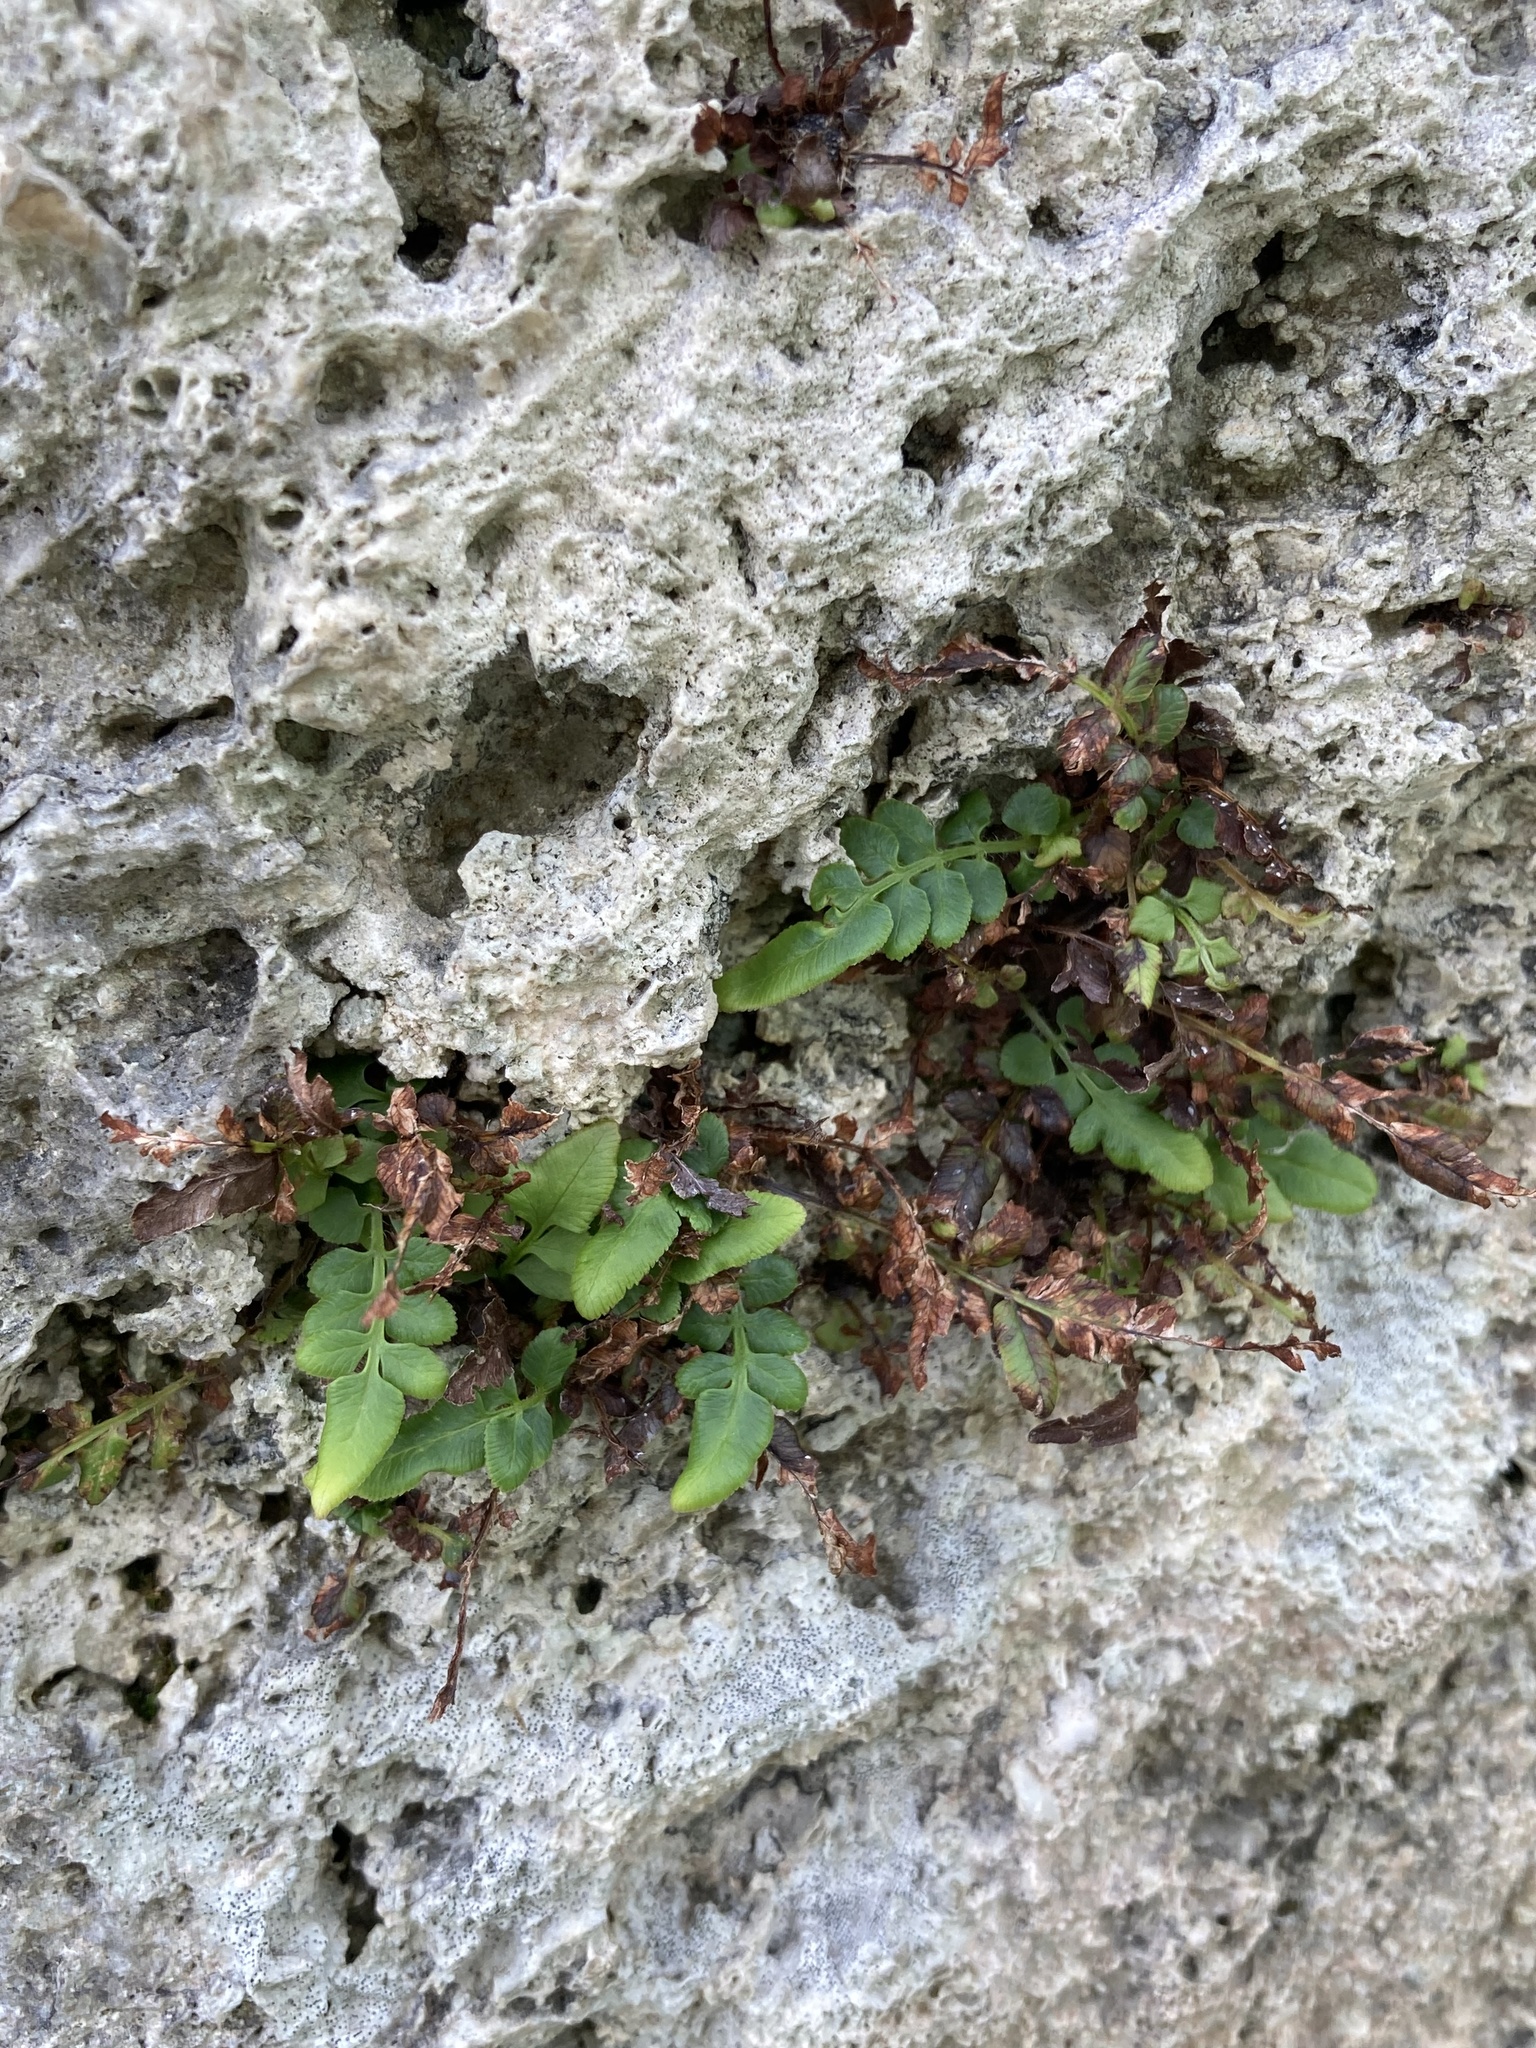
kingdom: Plantae
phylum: Tracheophyta
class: Polypodiopsida
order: Polypodiales
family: Pteridaceae
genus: Pteris
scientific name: Pteris vittata
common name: Ladder brake
